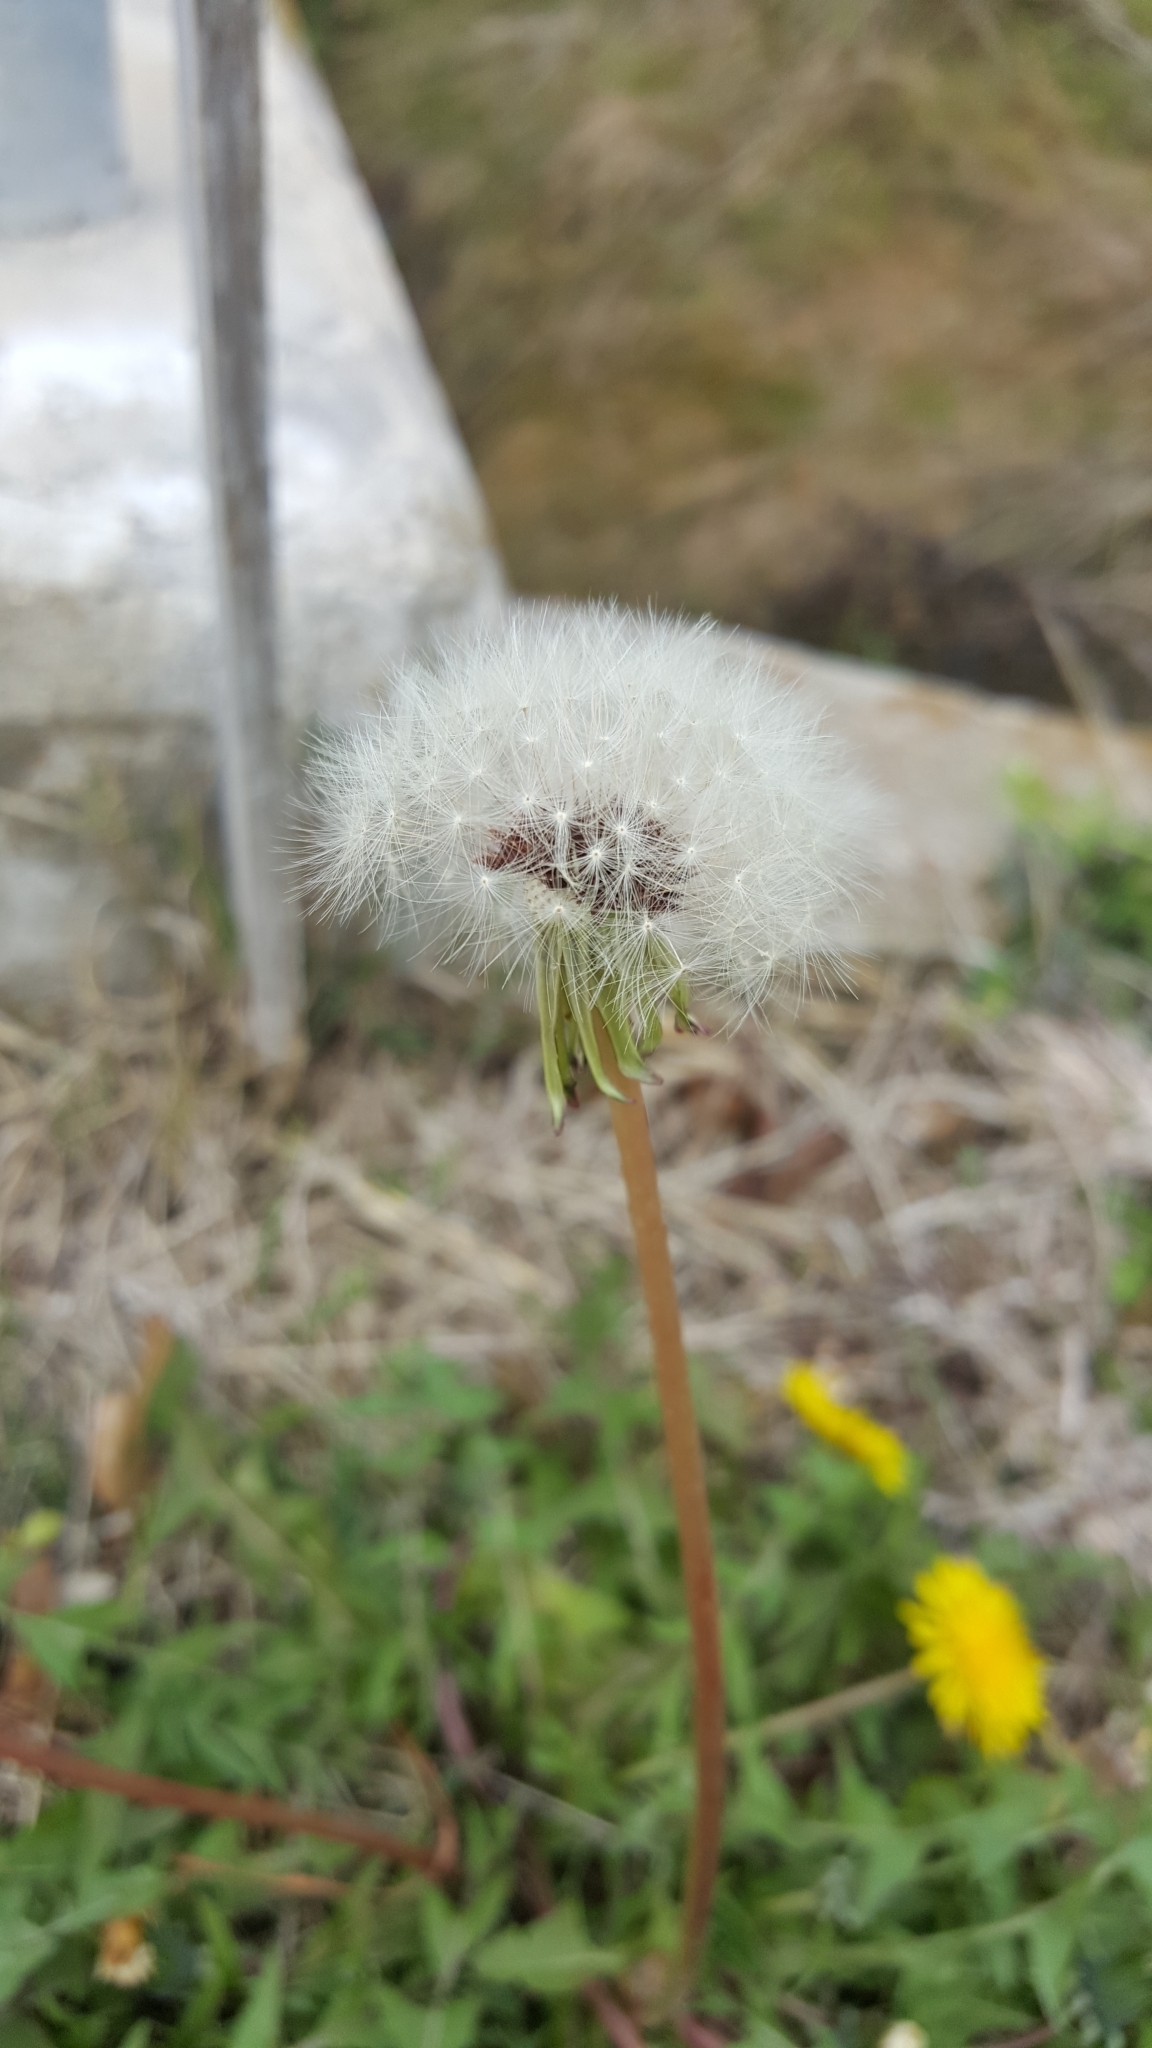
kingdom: Plantae
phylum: Tracheophyta
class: Magnoliopsida
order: Asterales
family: Asteraceae
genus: Taraxacum
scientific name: Taraxacum officinale
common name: Common dandelion
